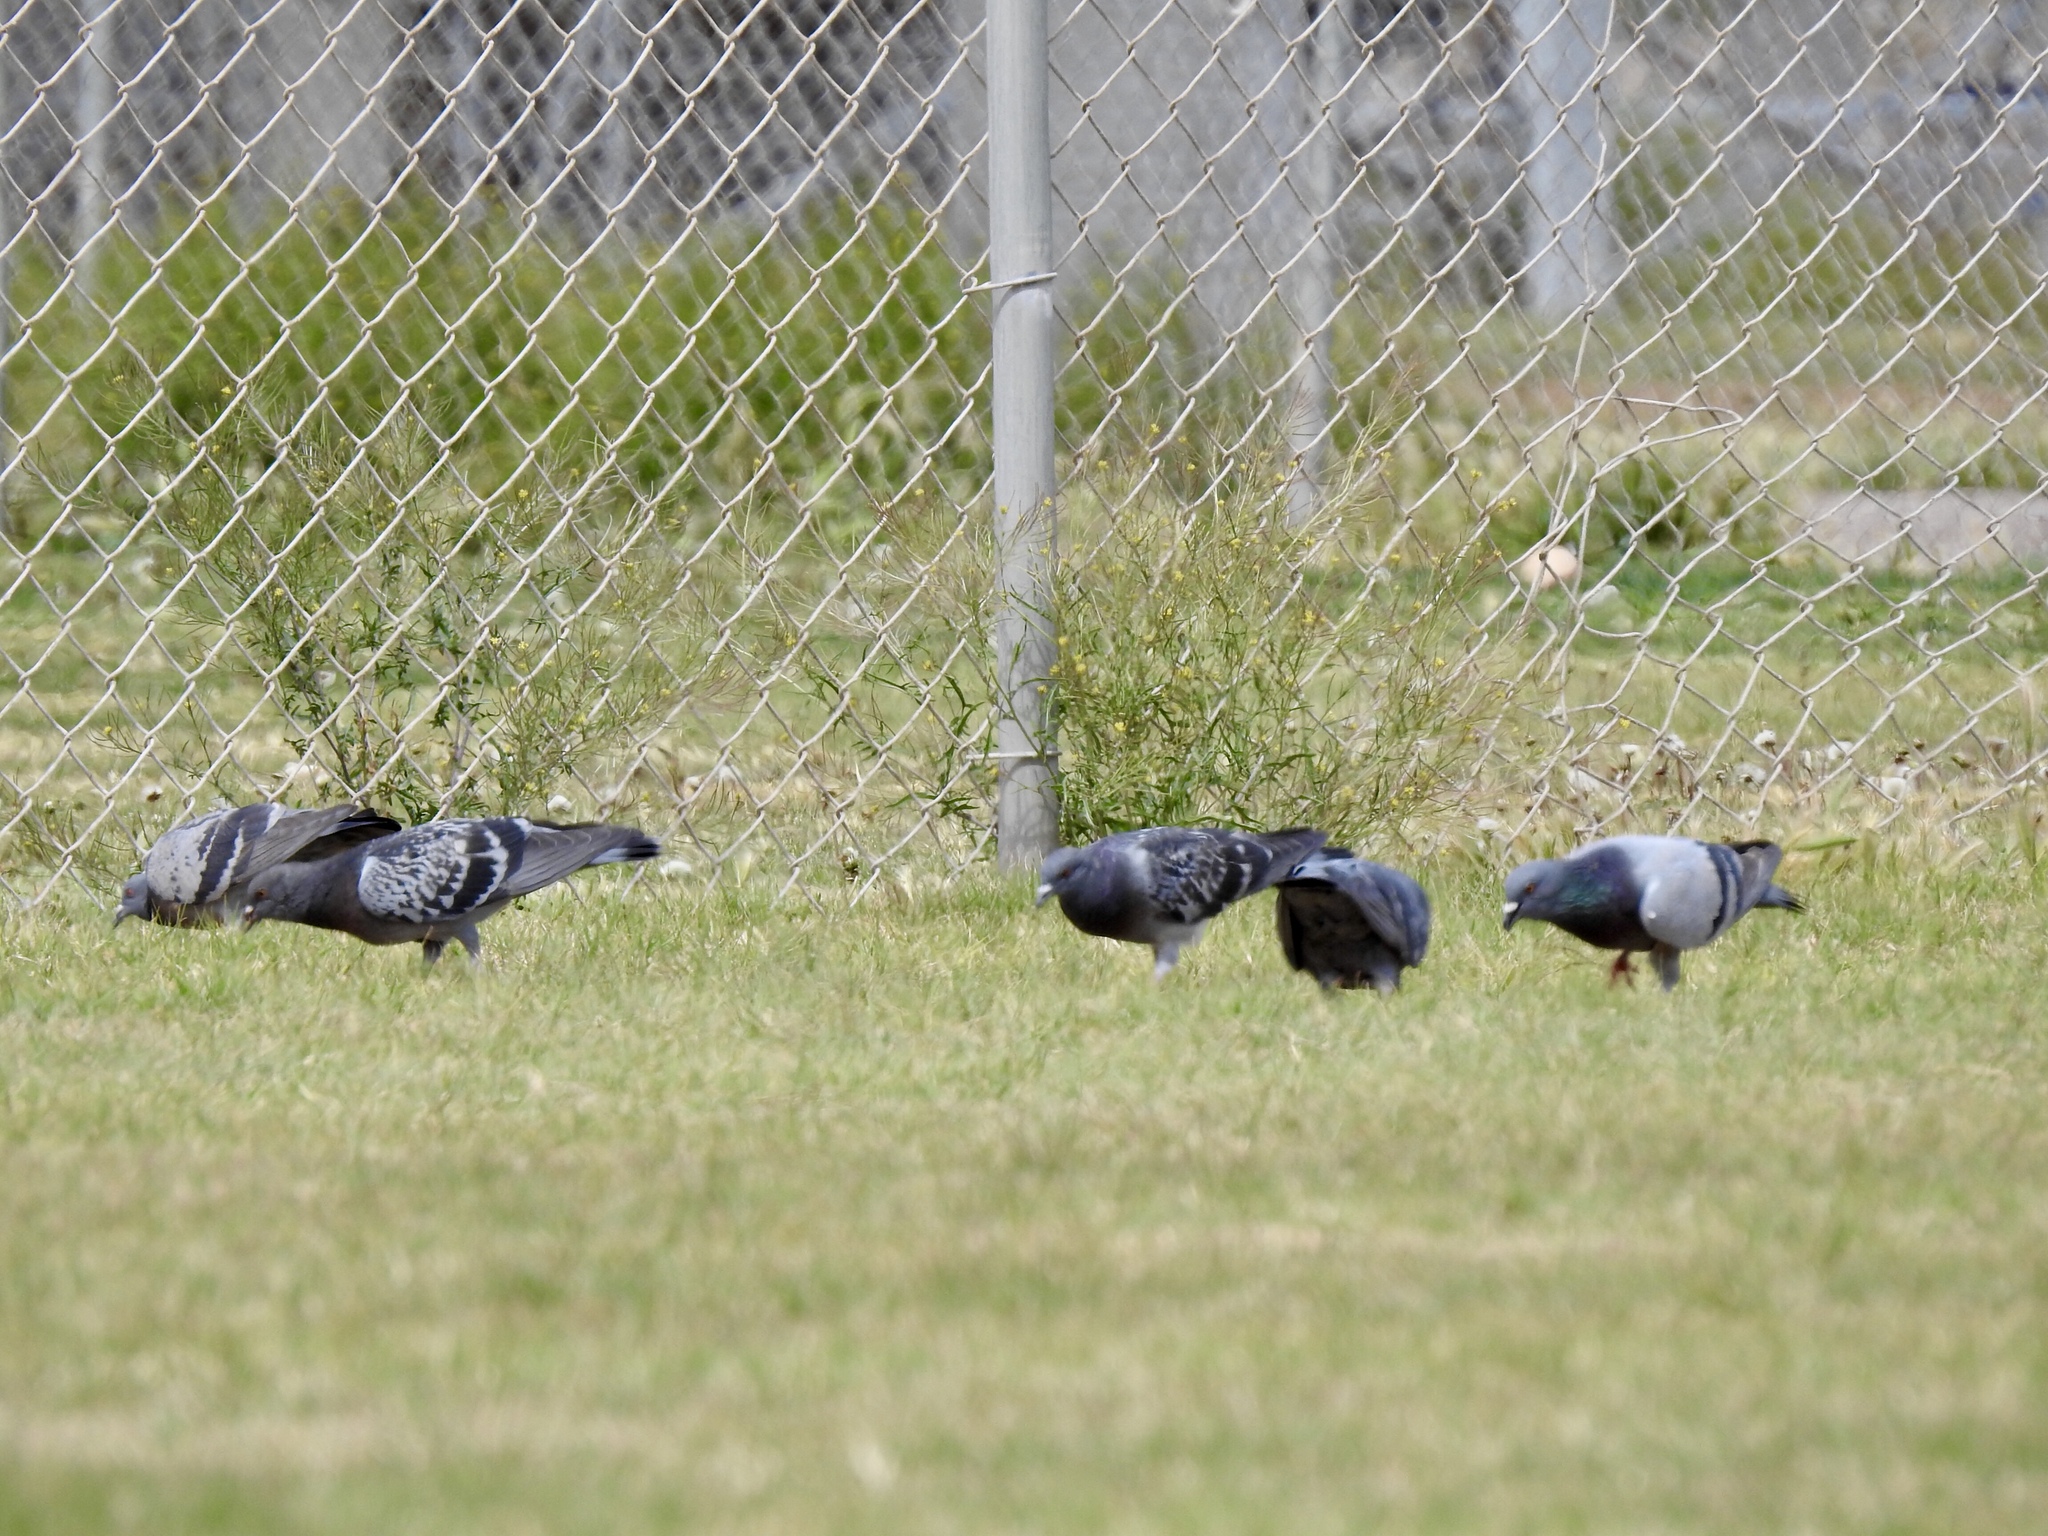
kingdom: Animalia
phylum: Chordata
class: Aves
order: Columbiformes
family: Columbidae
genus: Columba
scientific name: Columba livia
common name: Rock pigeon
